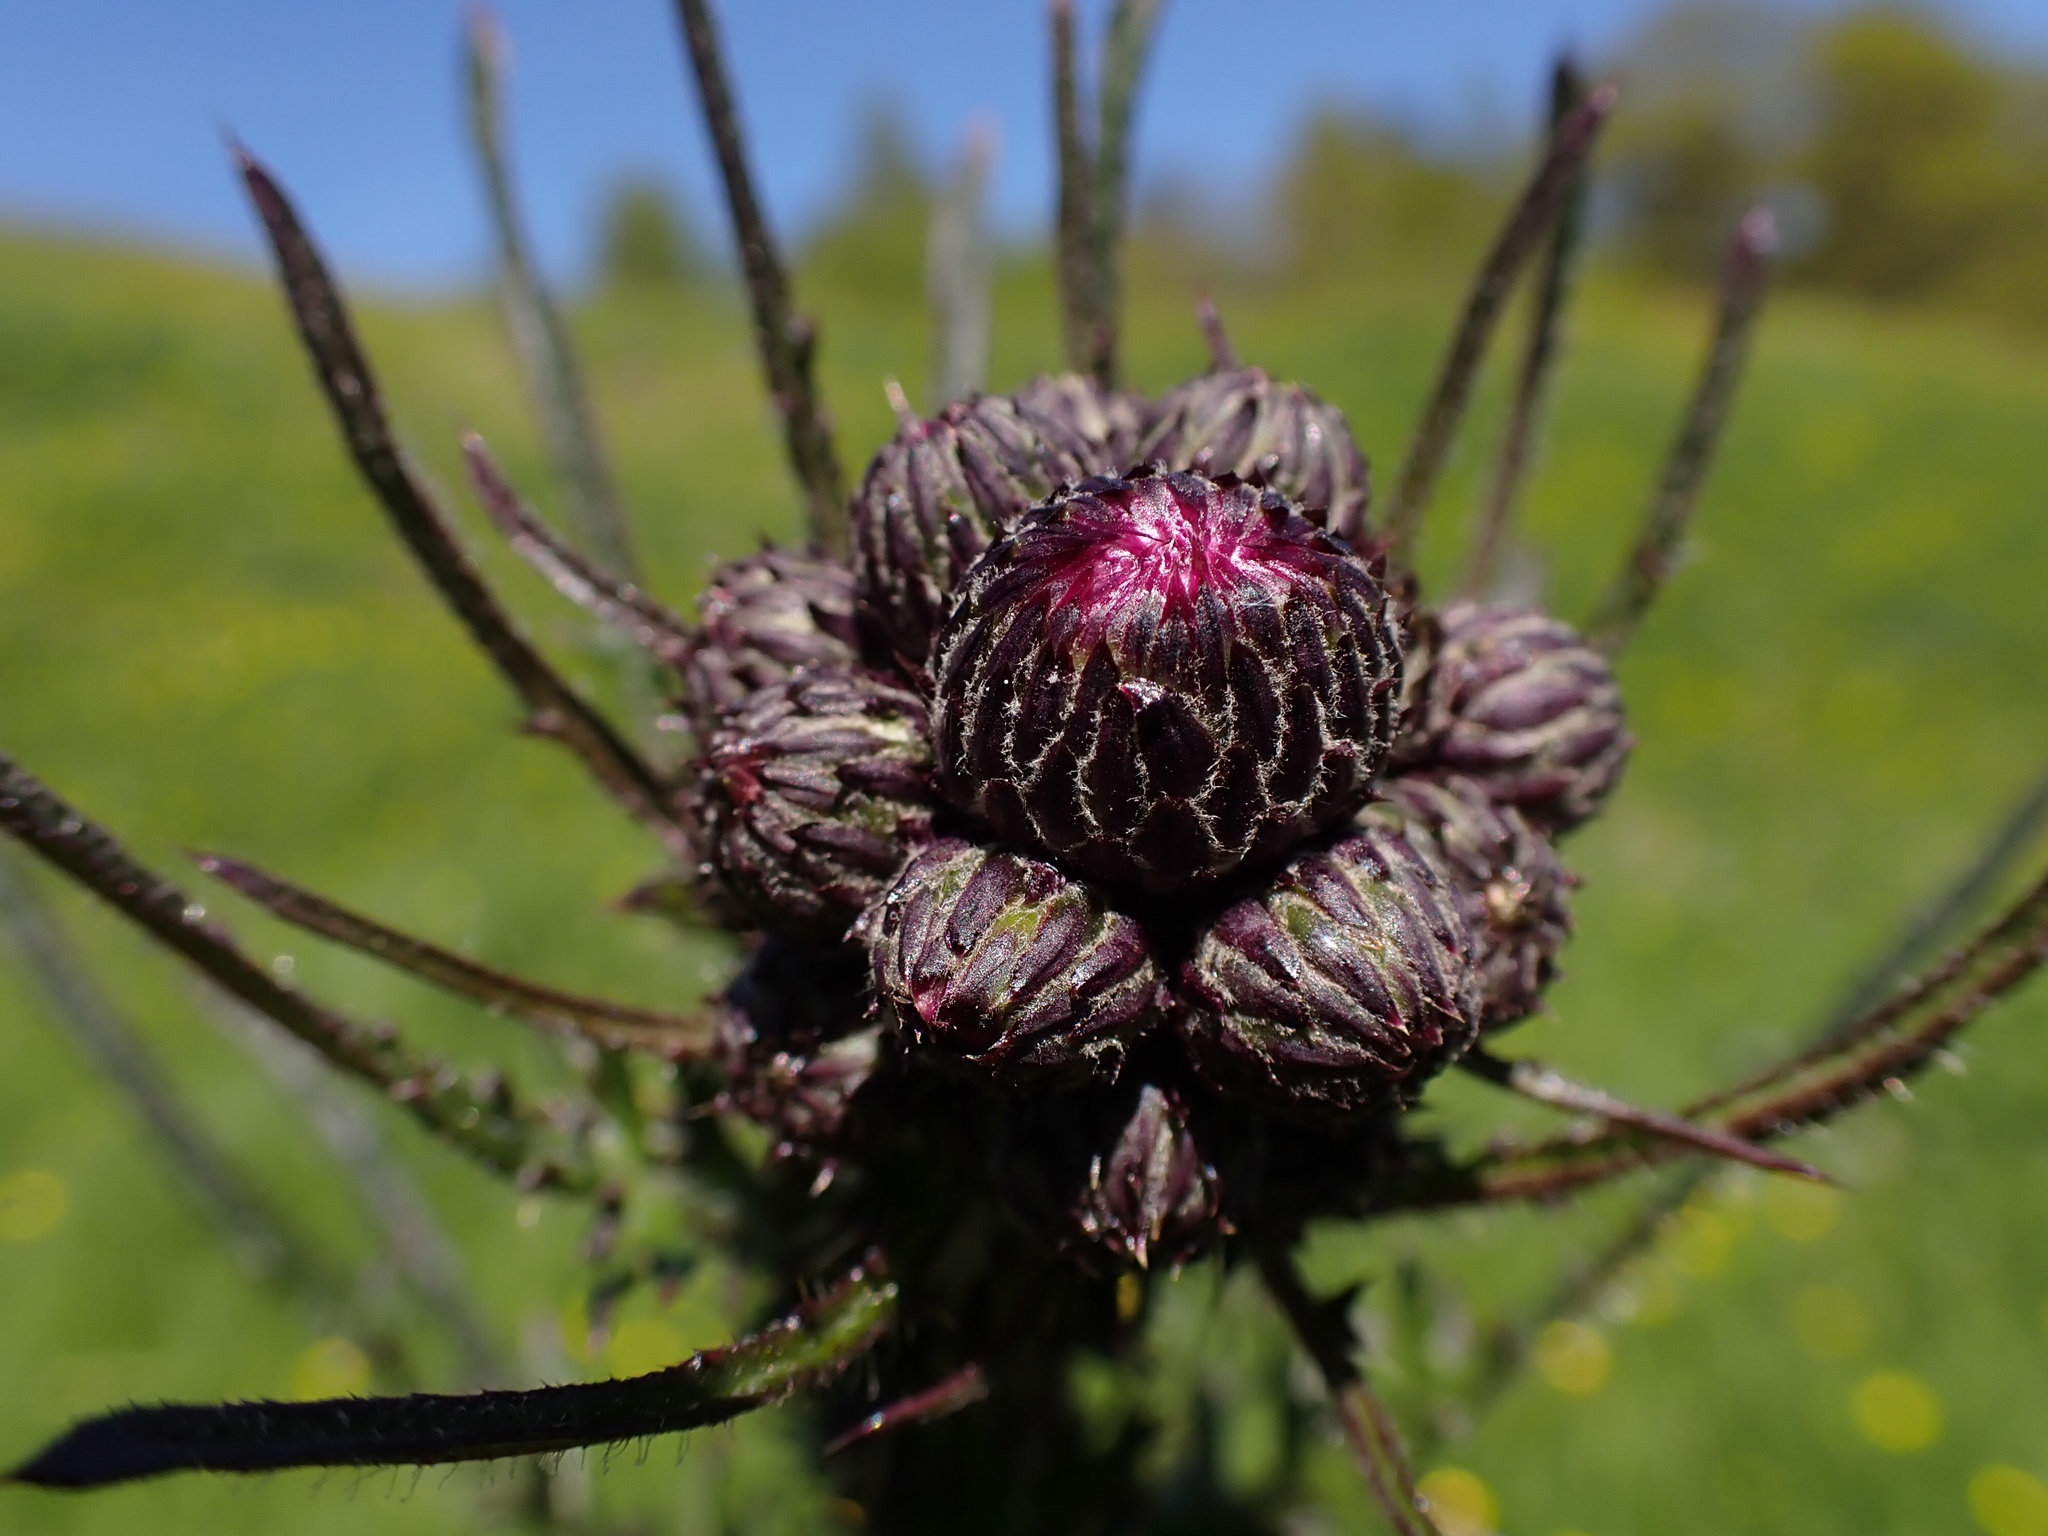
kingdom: Plantae
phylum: Tracheophyta
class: Magnoliopsida
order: Asterales
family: Asteraceae
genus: Cirsium
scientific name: Cirsium palustre
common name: Marsh thistle
